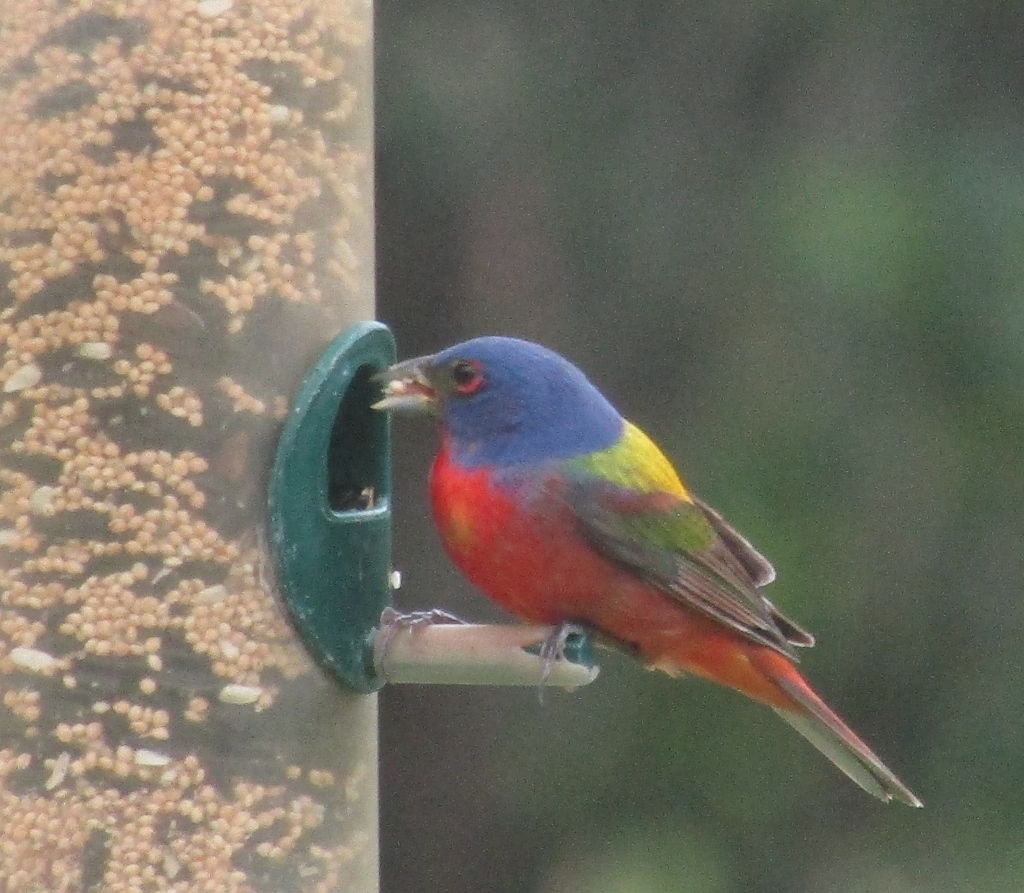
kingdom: Animalia
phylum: Chordata
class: Aves
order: Passeriformes
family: Cardinalidae
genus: Passerina
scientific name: Passerina ciris
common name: Painted bunting
